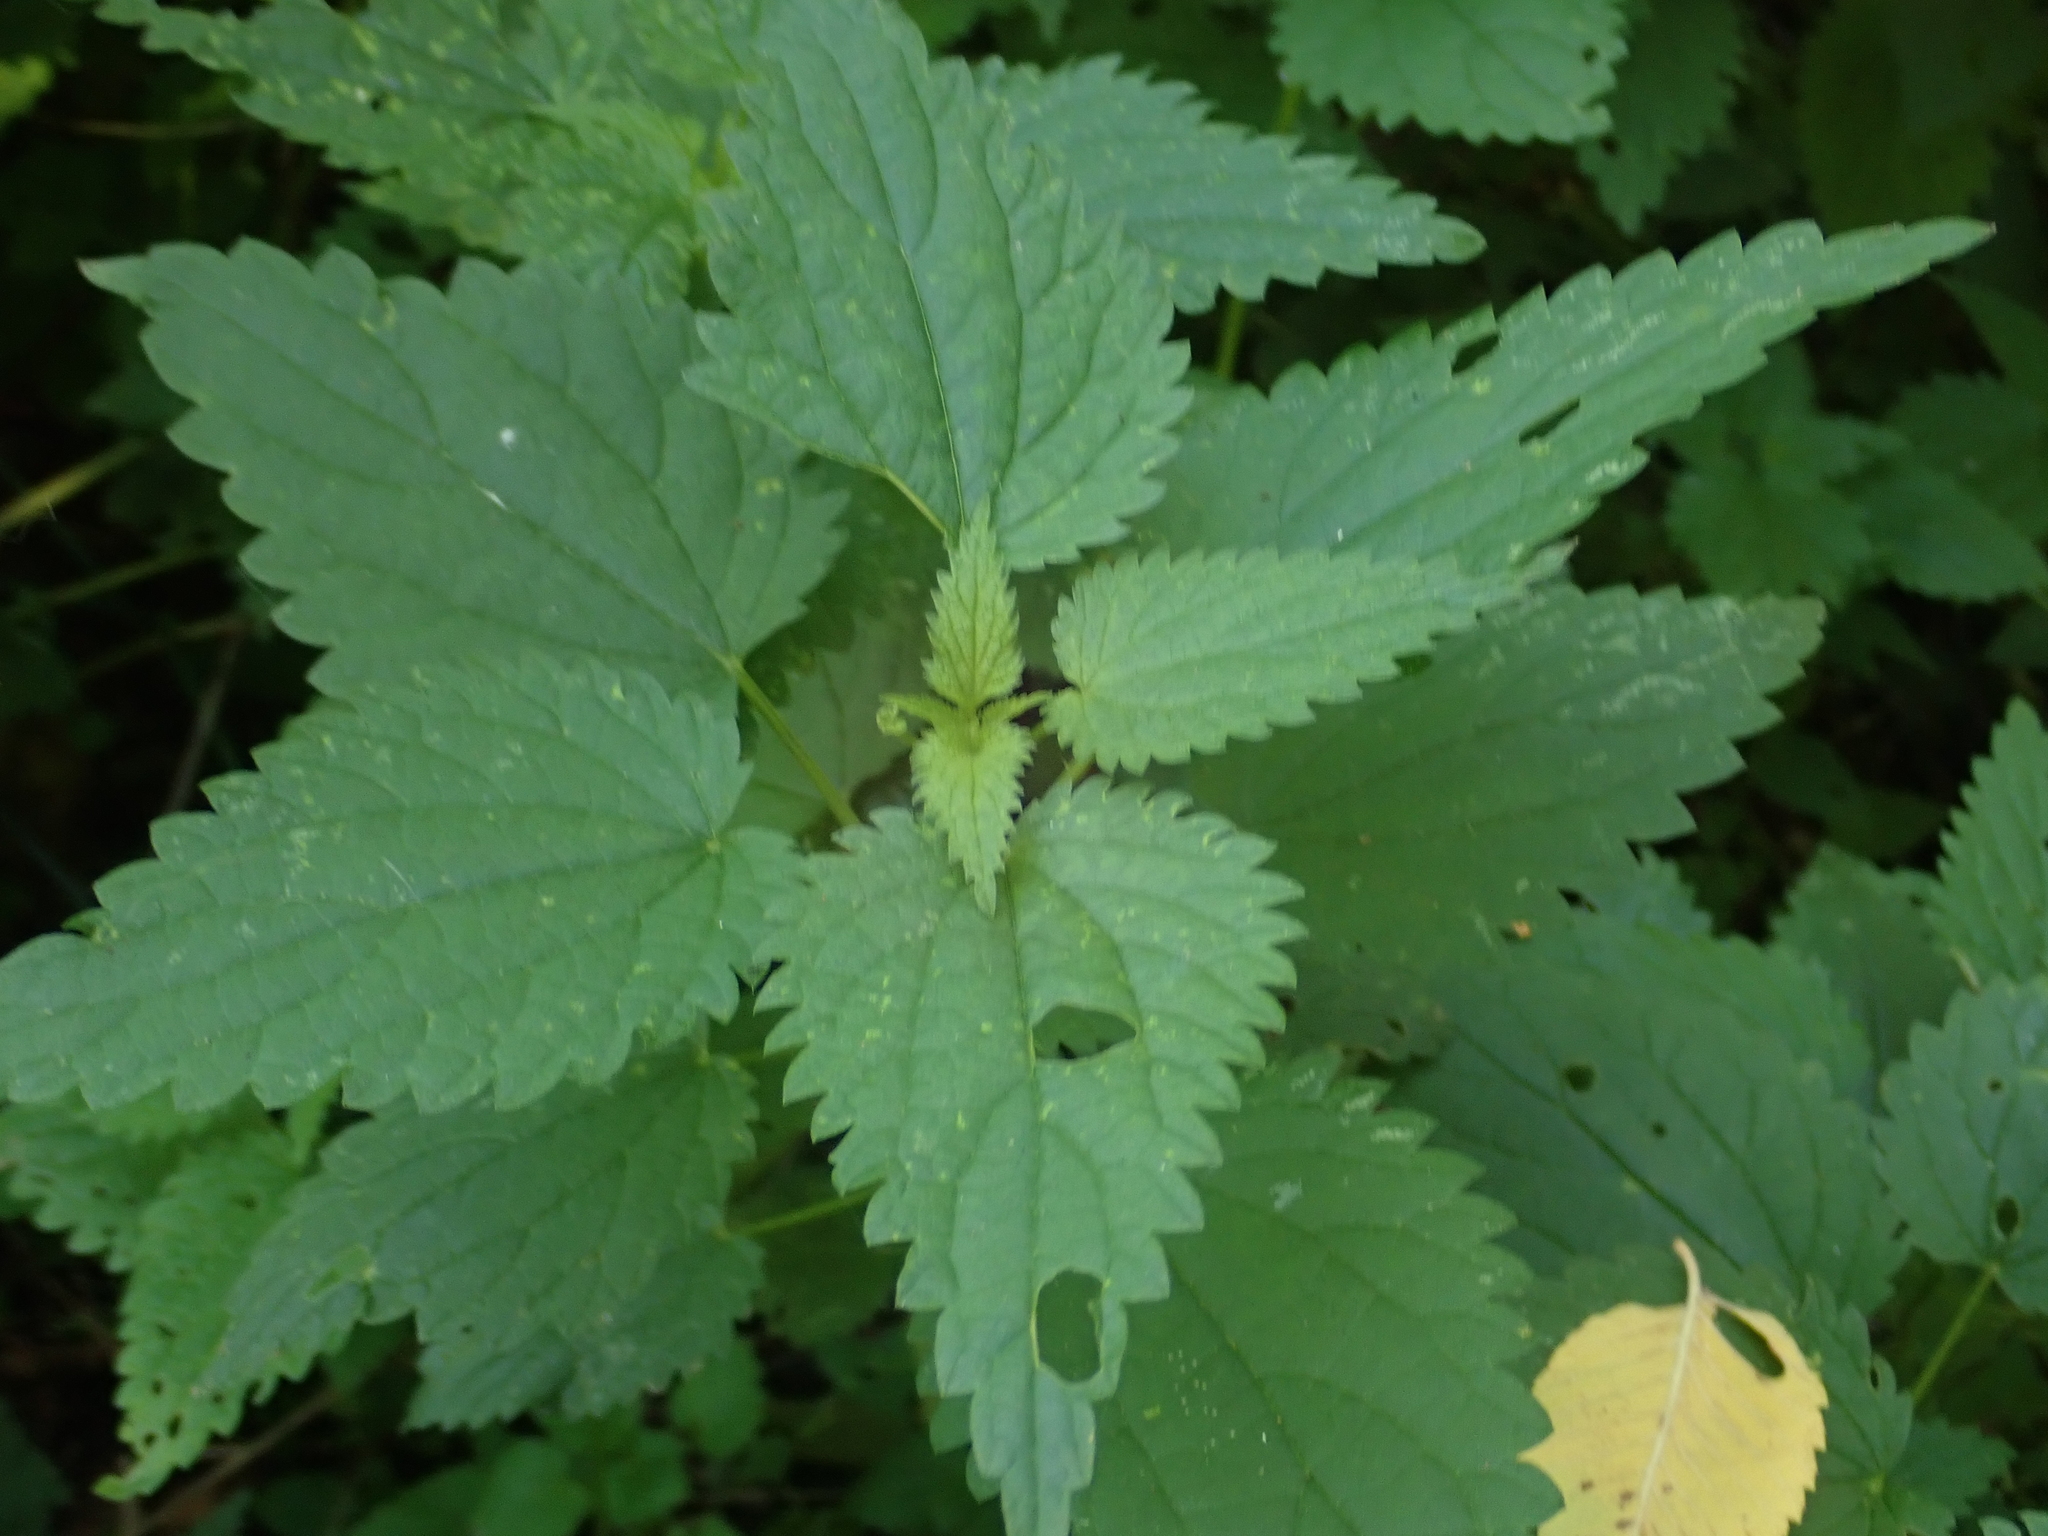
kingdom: Plantae
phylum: Tracheophyta
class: Magnoliopsida
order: Rosales
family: Urticaceae
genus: Urtica
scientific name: Urtica dioica
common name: Common nettle
